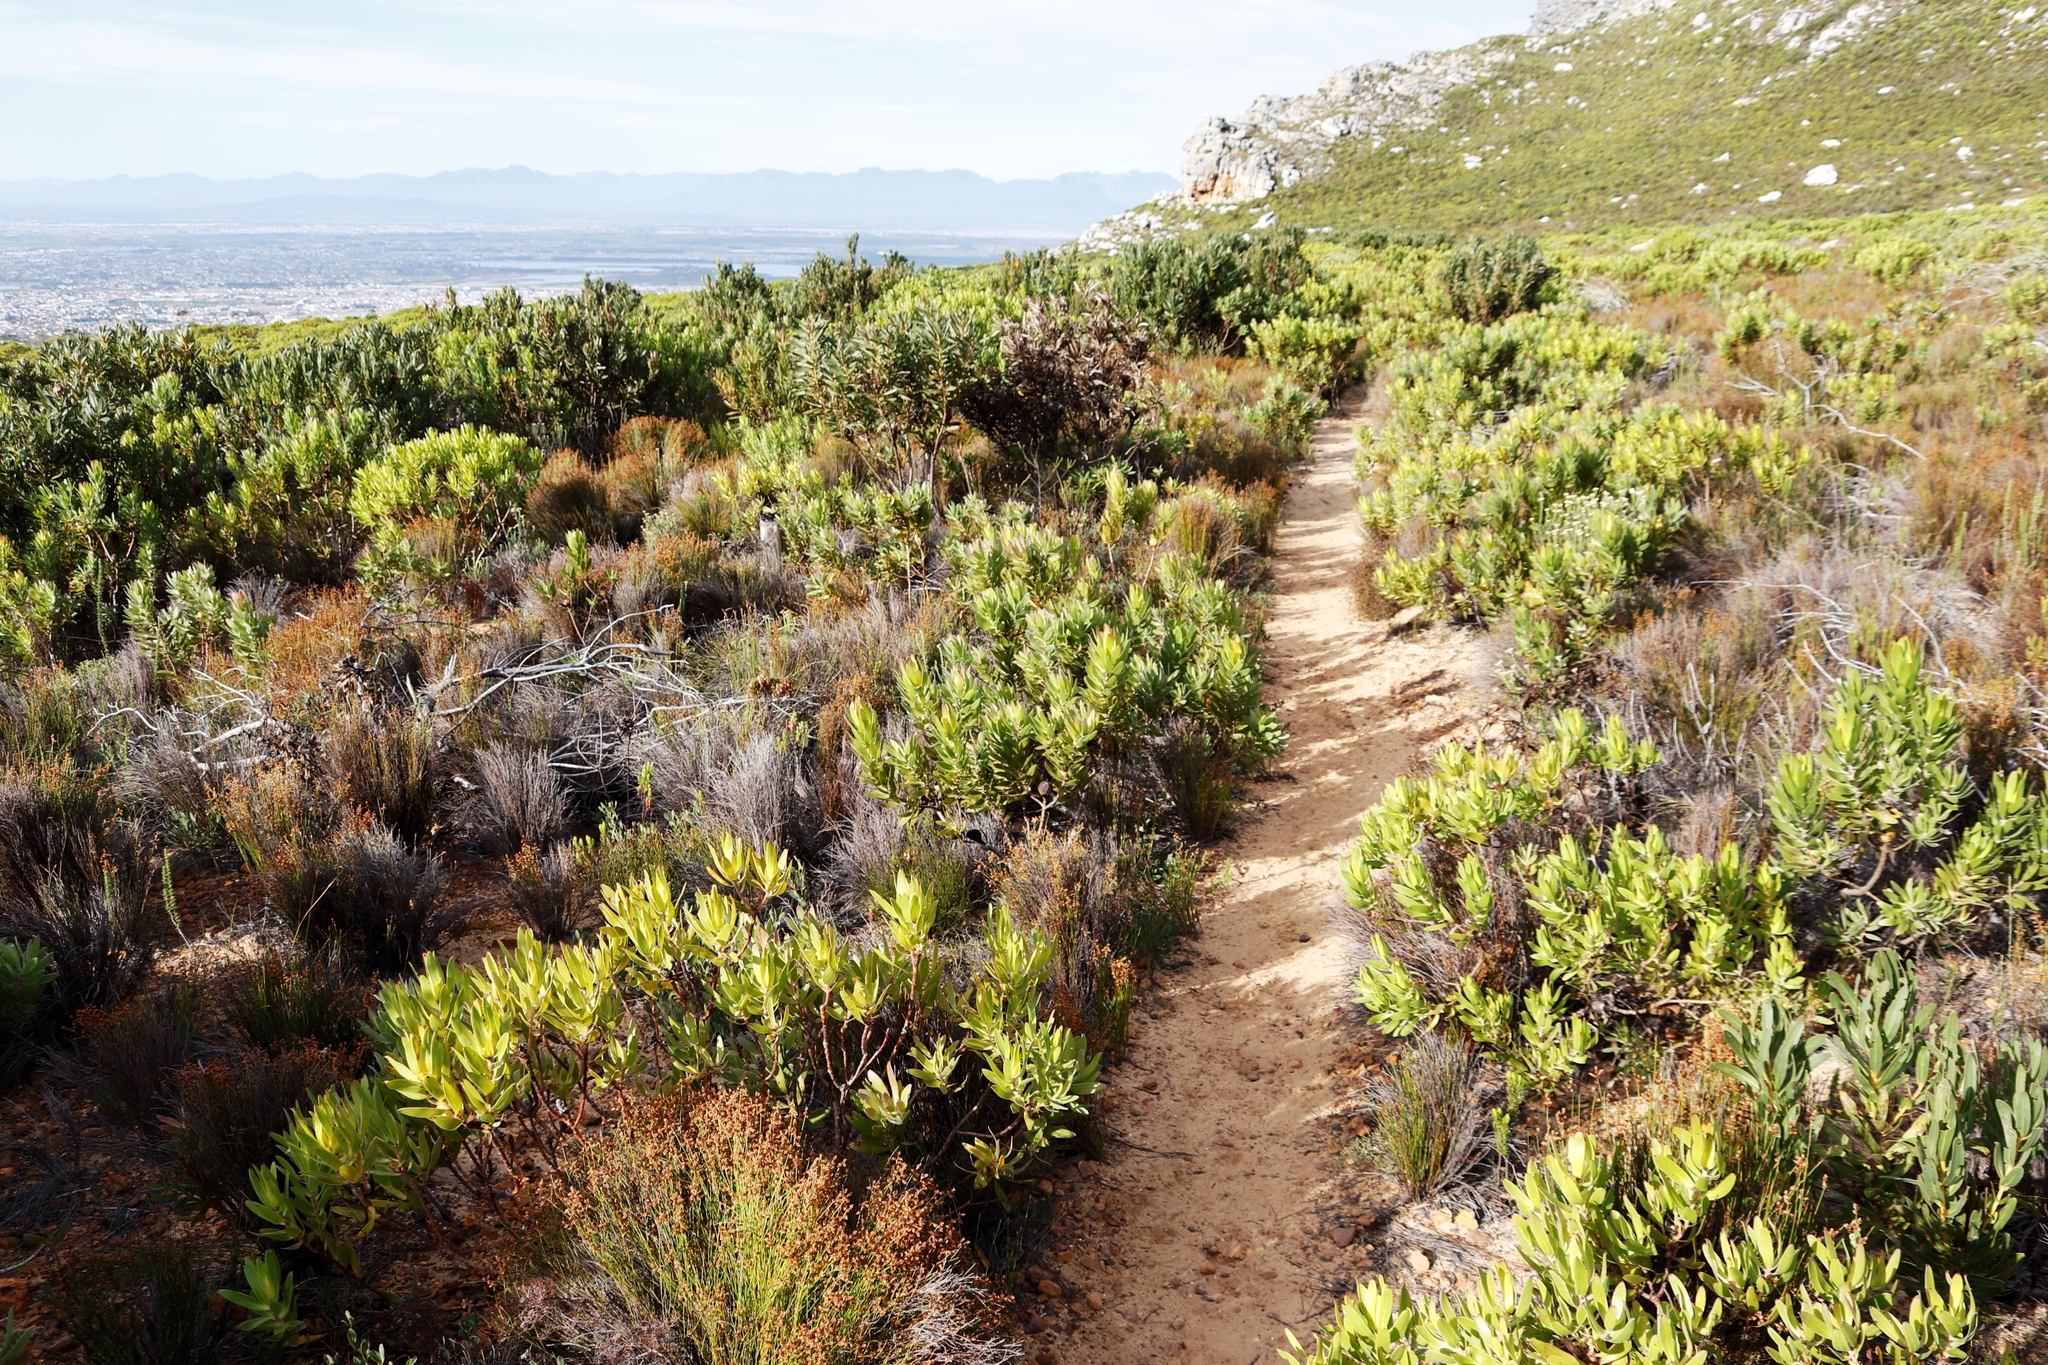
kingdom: Plantae
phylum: Tracheophyta
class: Magnoliopsida
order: Proteales
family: Proteaceae
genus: Leucadendron
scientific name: Leucadendron laureolum
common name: Golden sunshinebush
